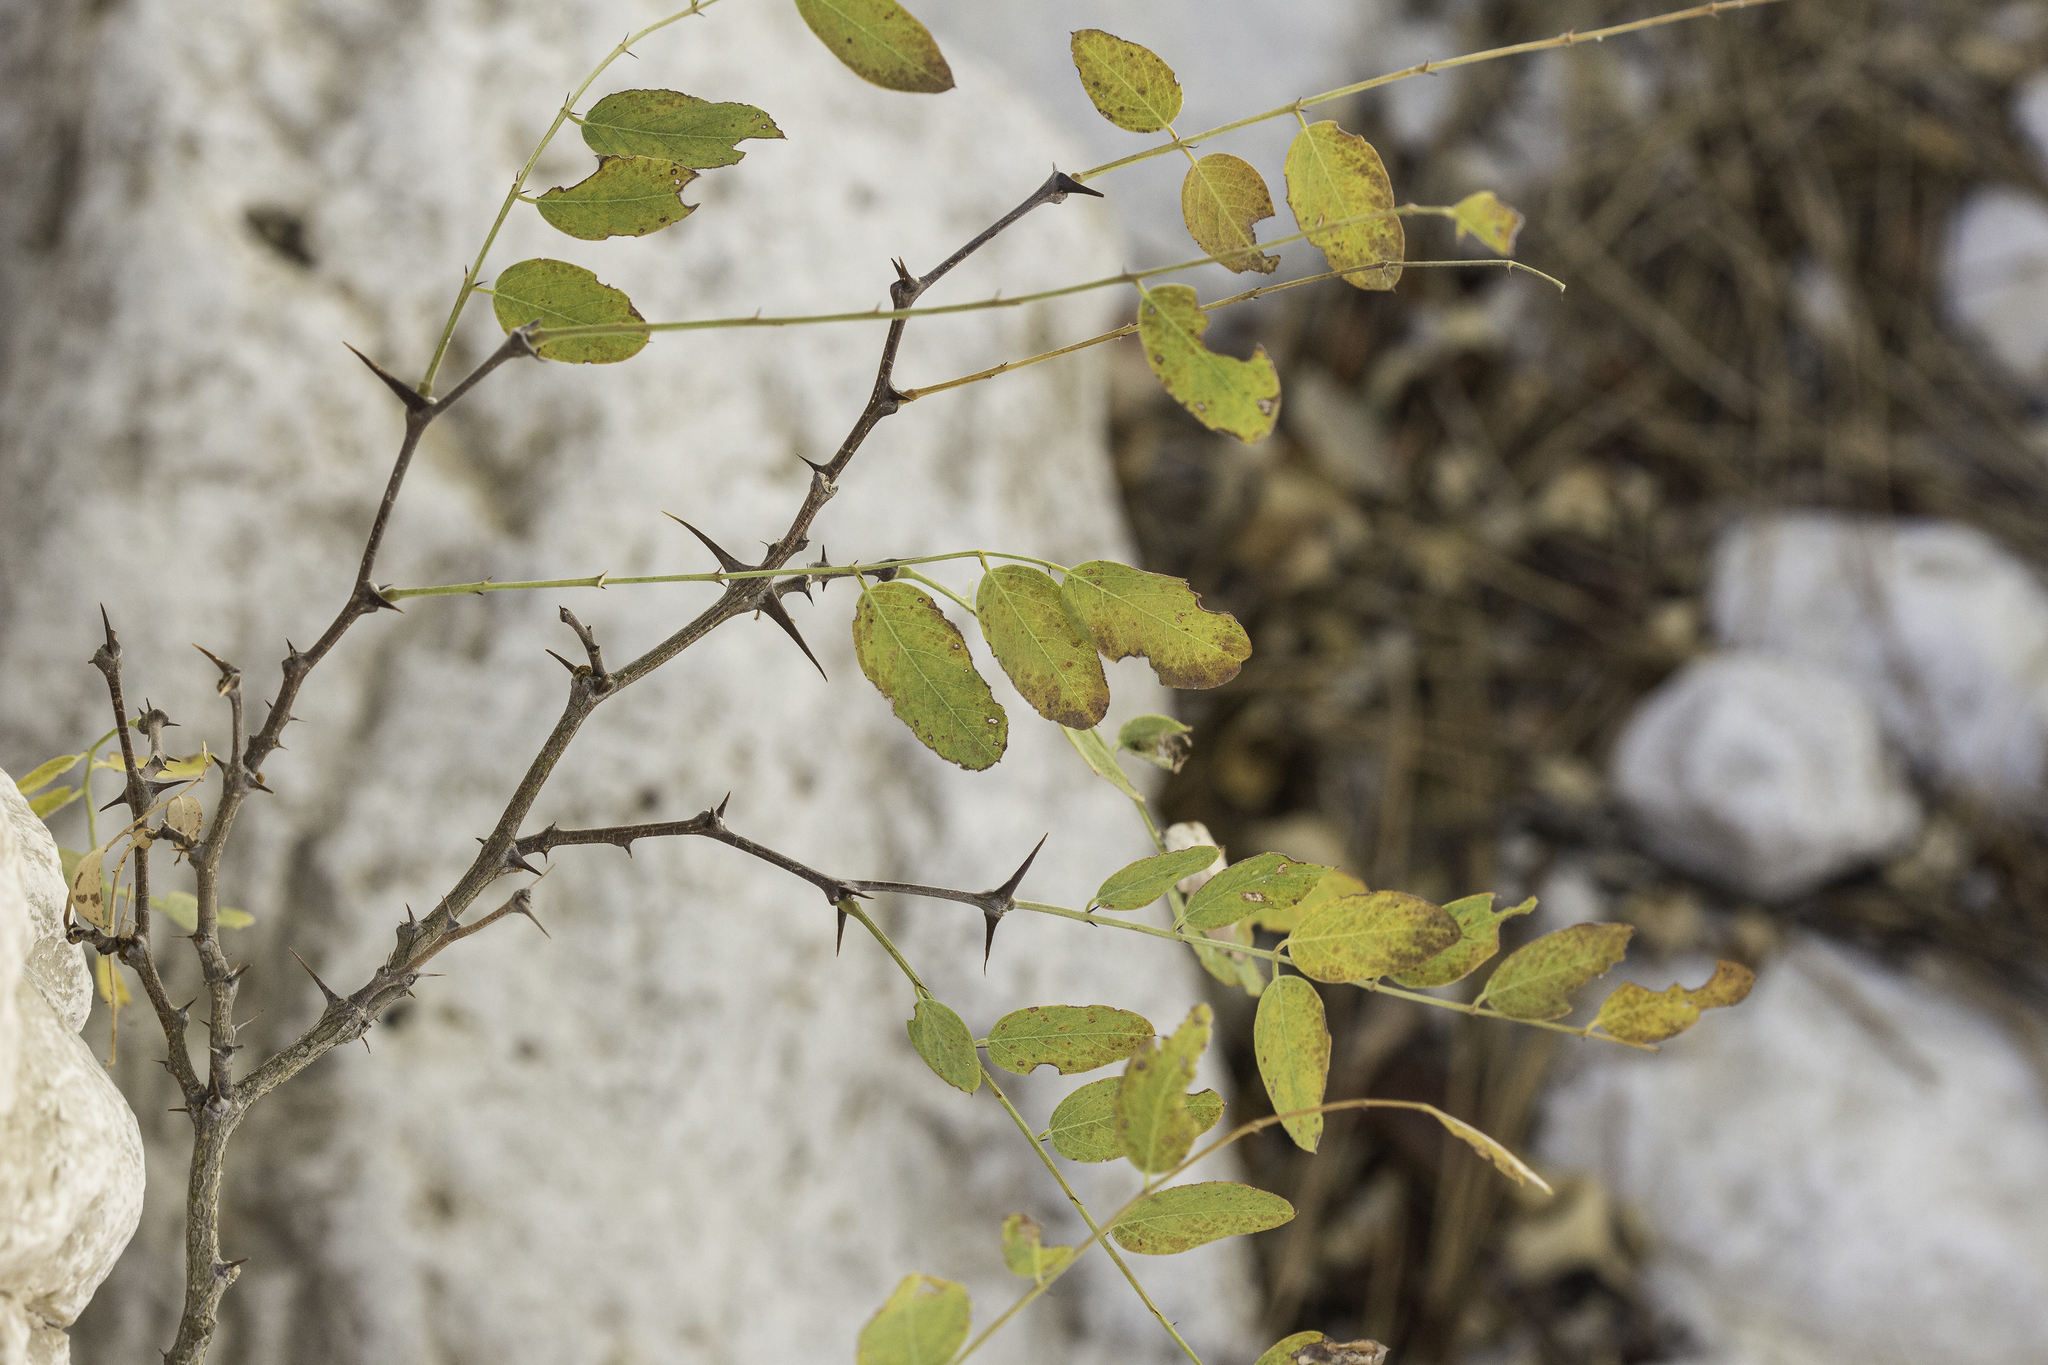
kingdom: Plantae
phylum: Tracheophyta
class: Magnoliopsida
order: Fabales
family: Fabaceae
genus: Robinia
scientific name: Robinia neomexicana
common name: New mexico locust
